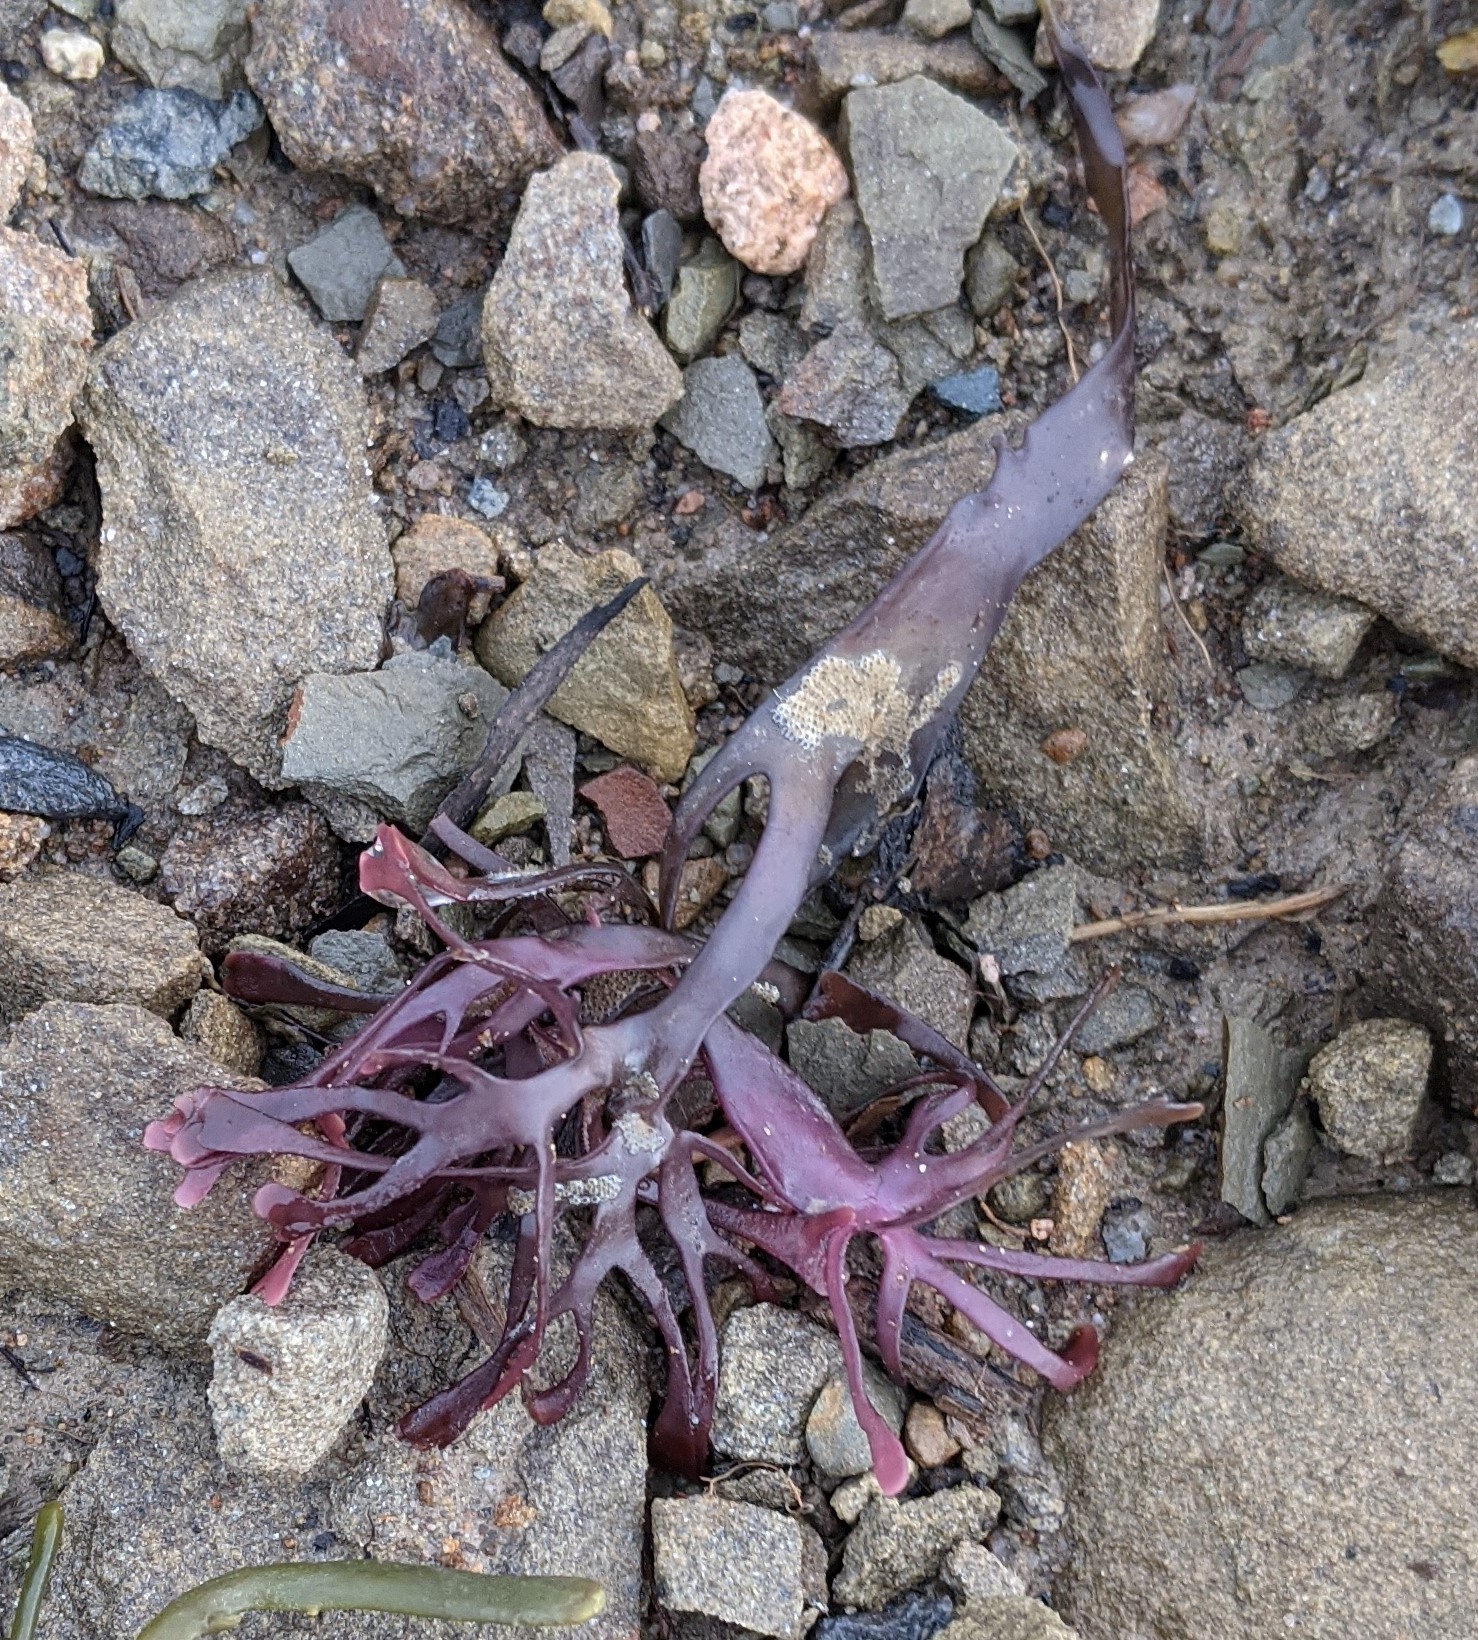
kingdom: Plantae
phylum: Rhodophyta
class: Florideophyceae
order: Gigartinales
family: Gigartinaceae
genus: Chondrus
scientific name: Chondrus crispus
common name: Carrageen
